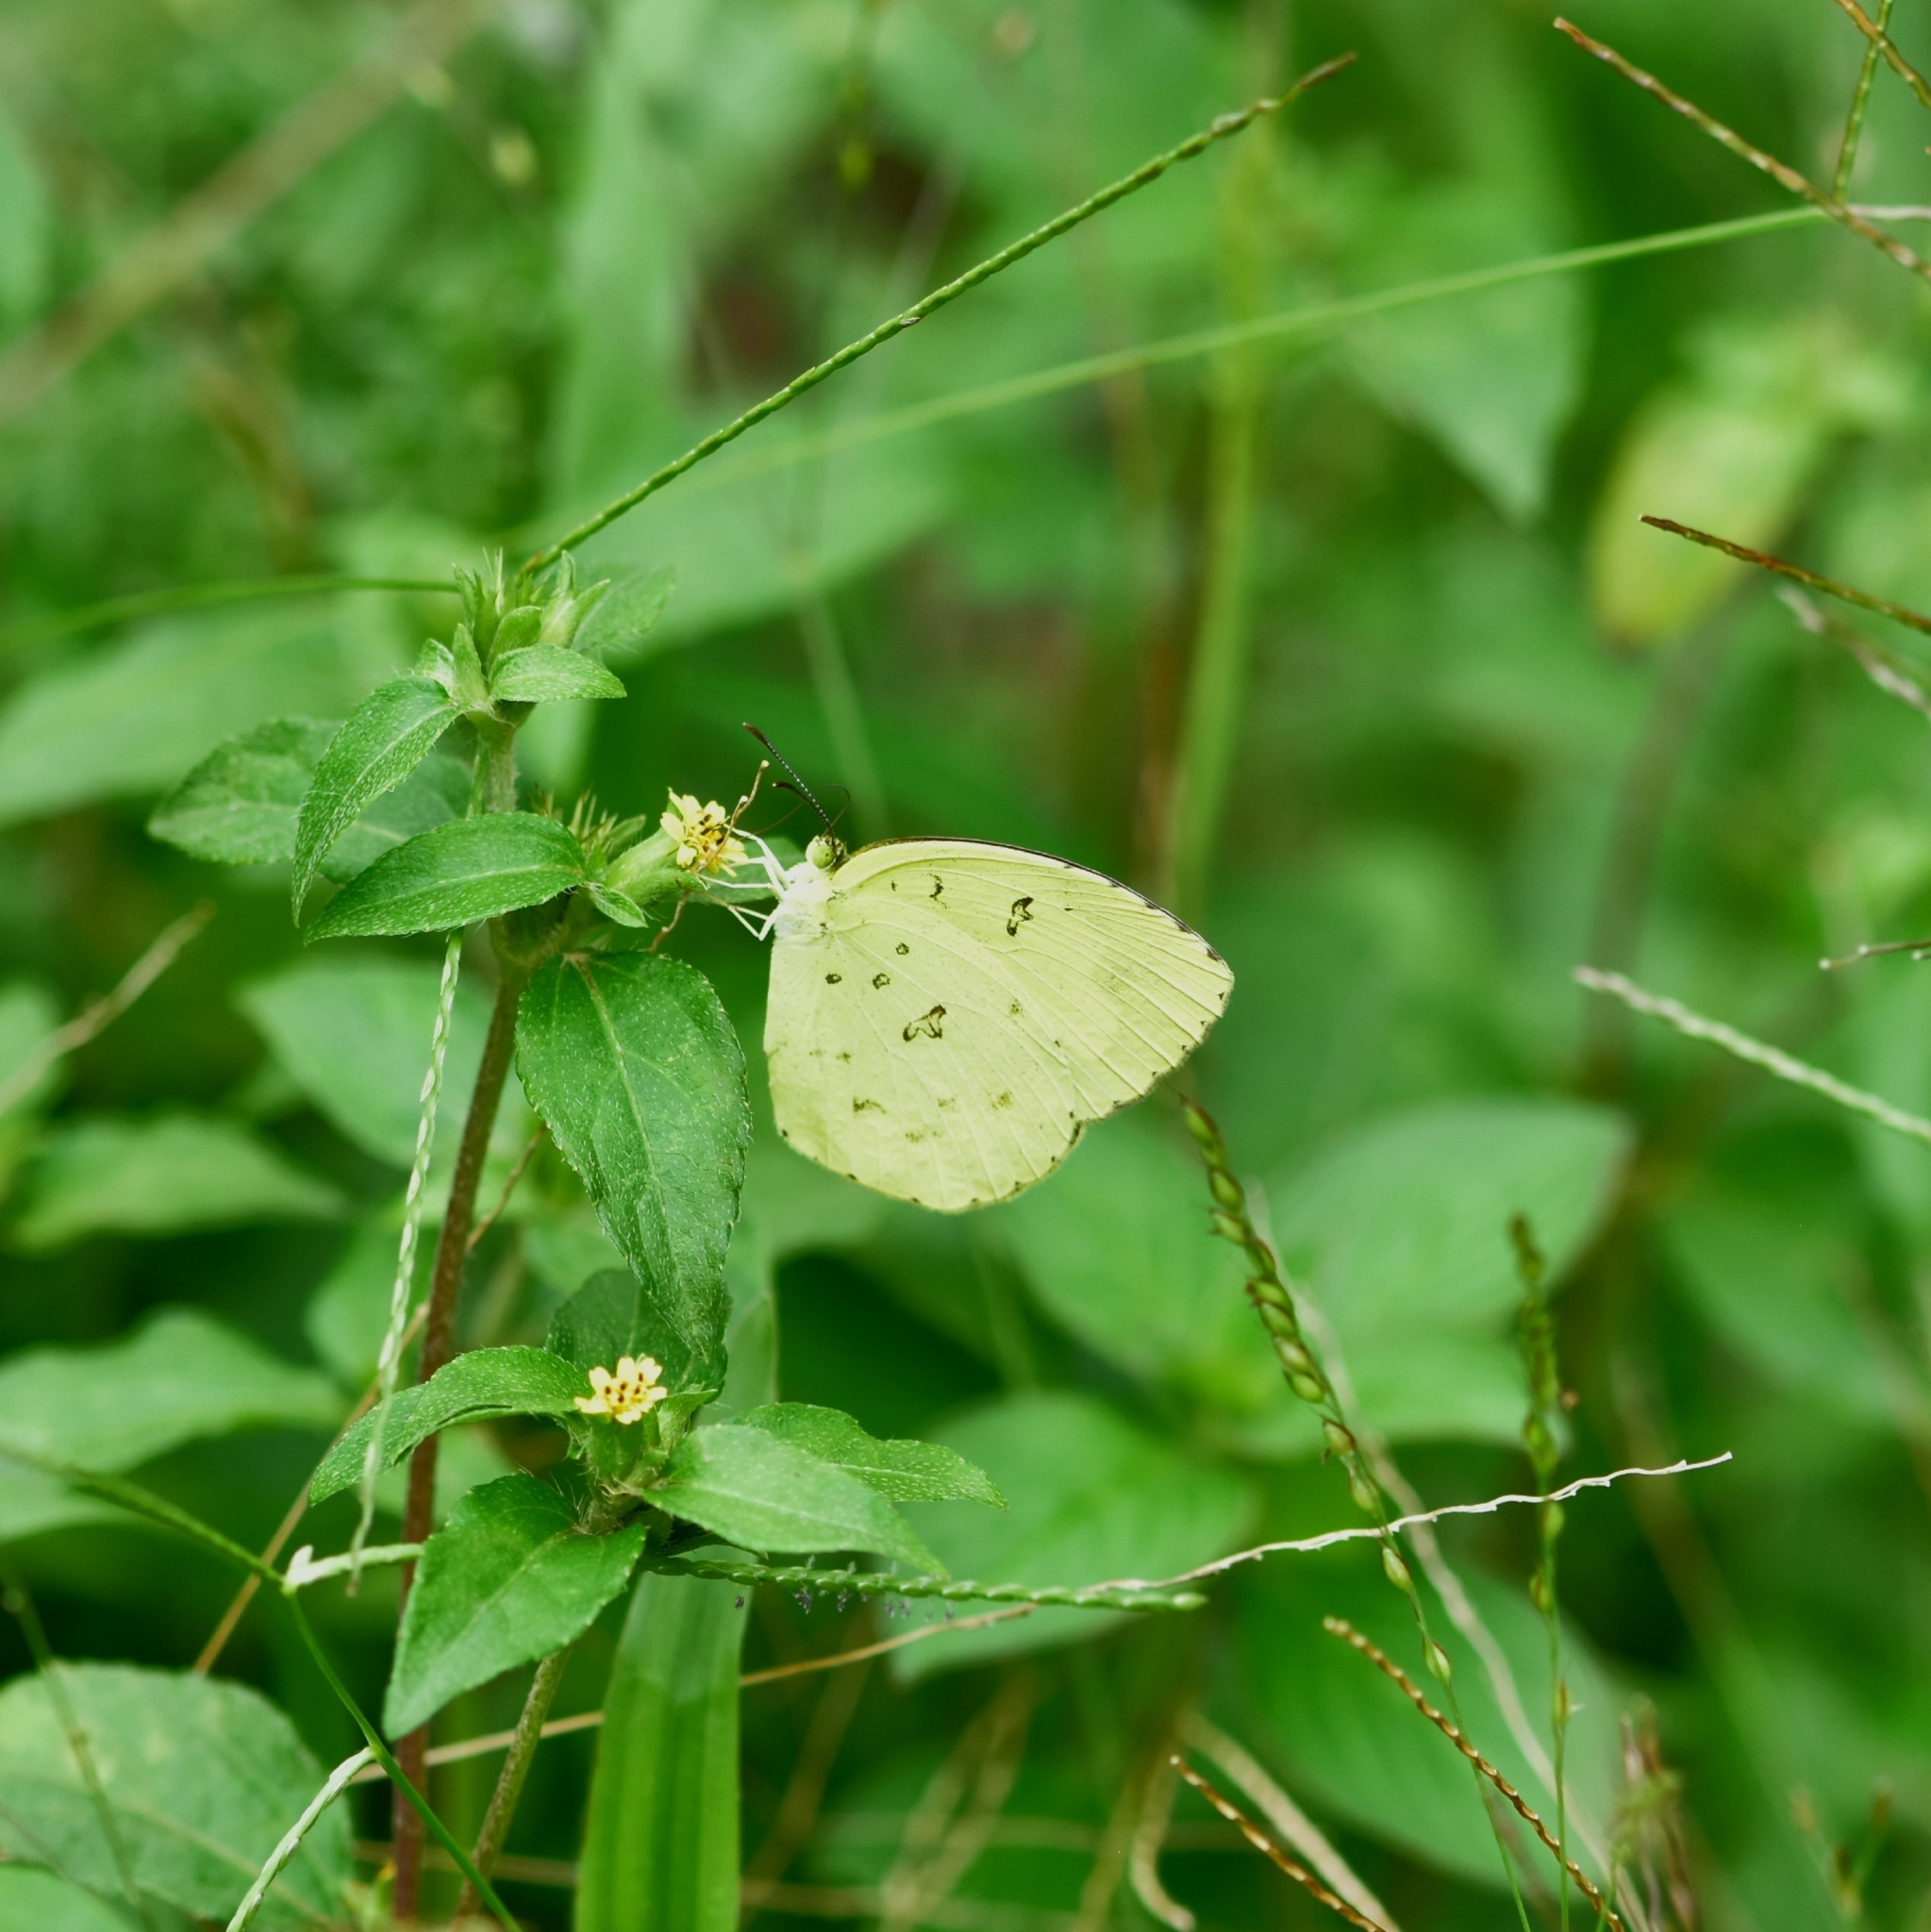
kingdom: Animalia
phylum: Arthropoda
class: Insecta
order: Lepidoptera
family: Pieridae
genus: Eurema
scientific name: Eurema hecabe
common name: Pale grass yellow
